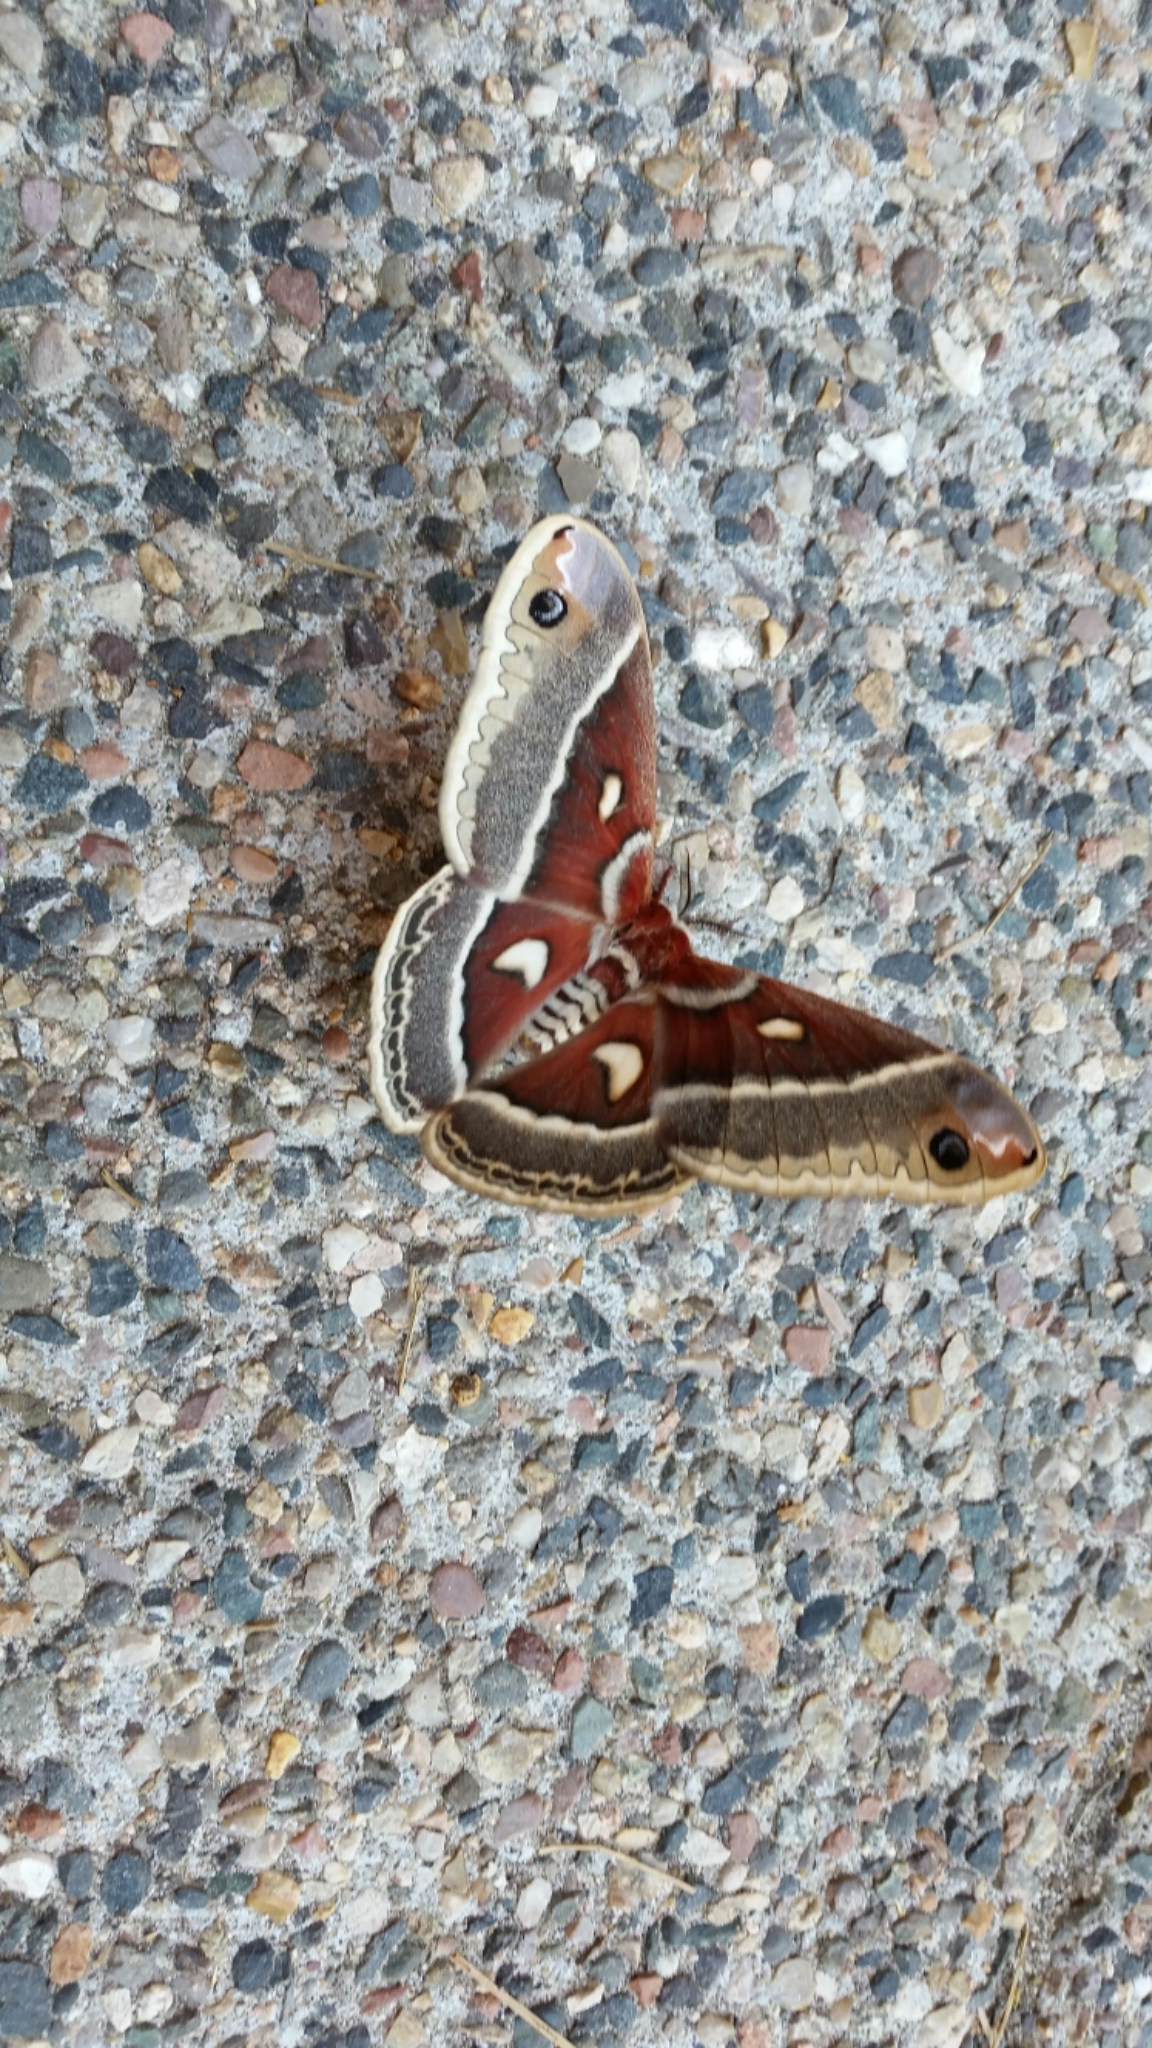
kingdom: Animalia
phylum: Arthropoda
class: Insecta
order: Lepidoptera
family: Saturniidae
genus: Hyalophora
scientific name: Hyalophora gloveri
